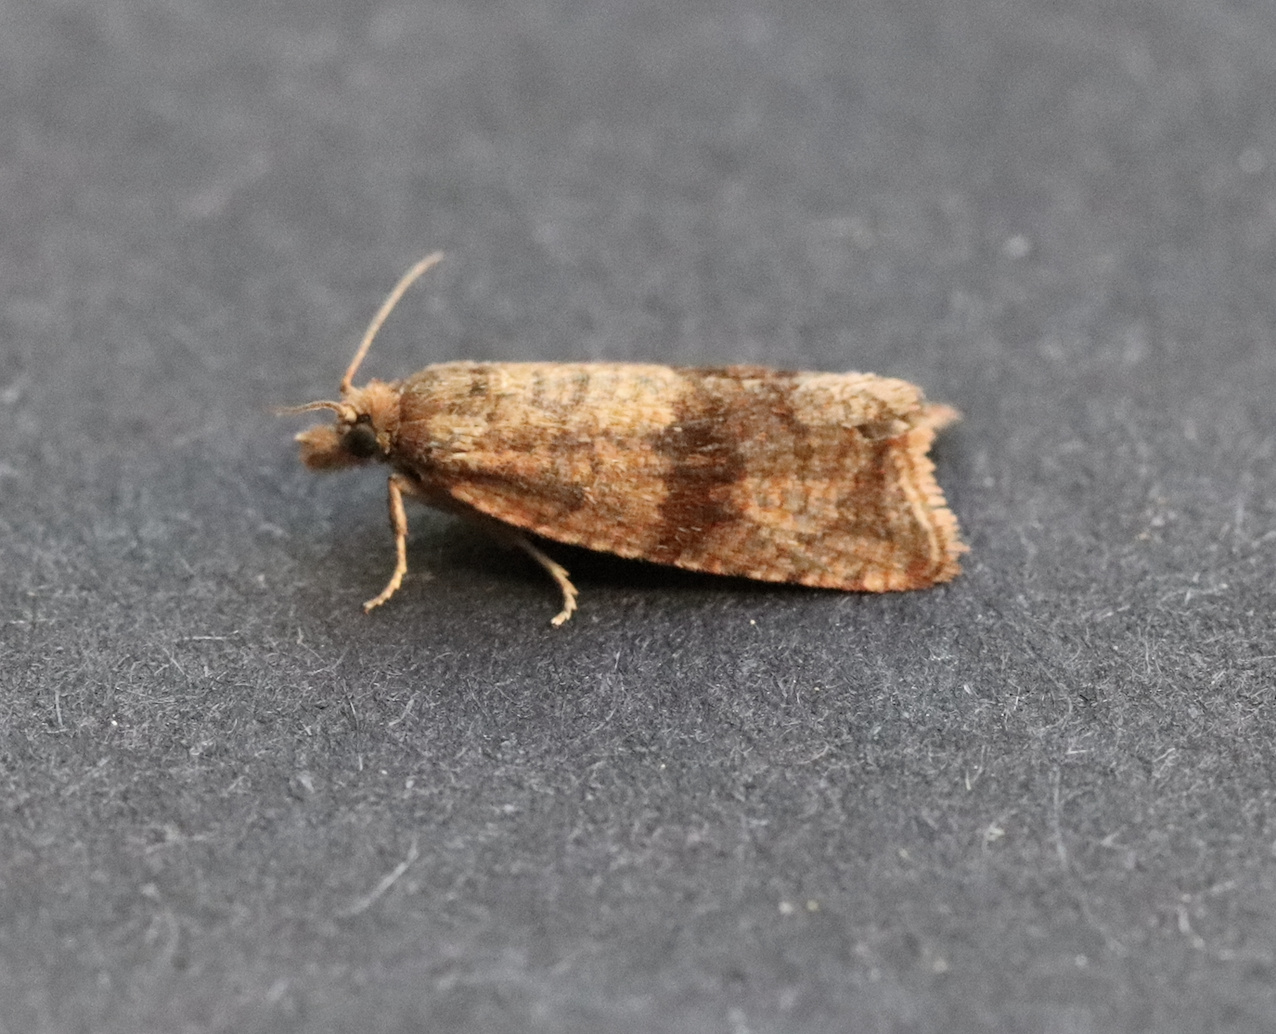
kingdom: Animalia
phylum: Arthropoda
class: Insecta
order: Lepidoptera
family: Tortricidae
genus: Celypha
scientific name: Celypha striana
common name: Barred marble
